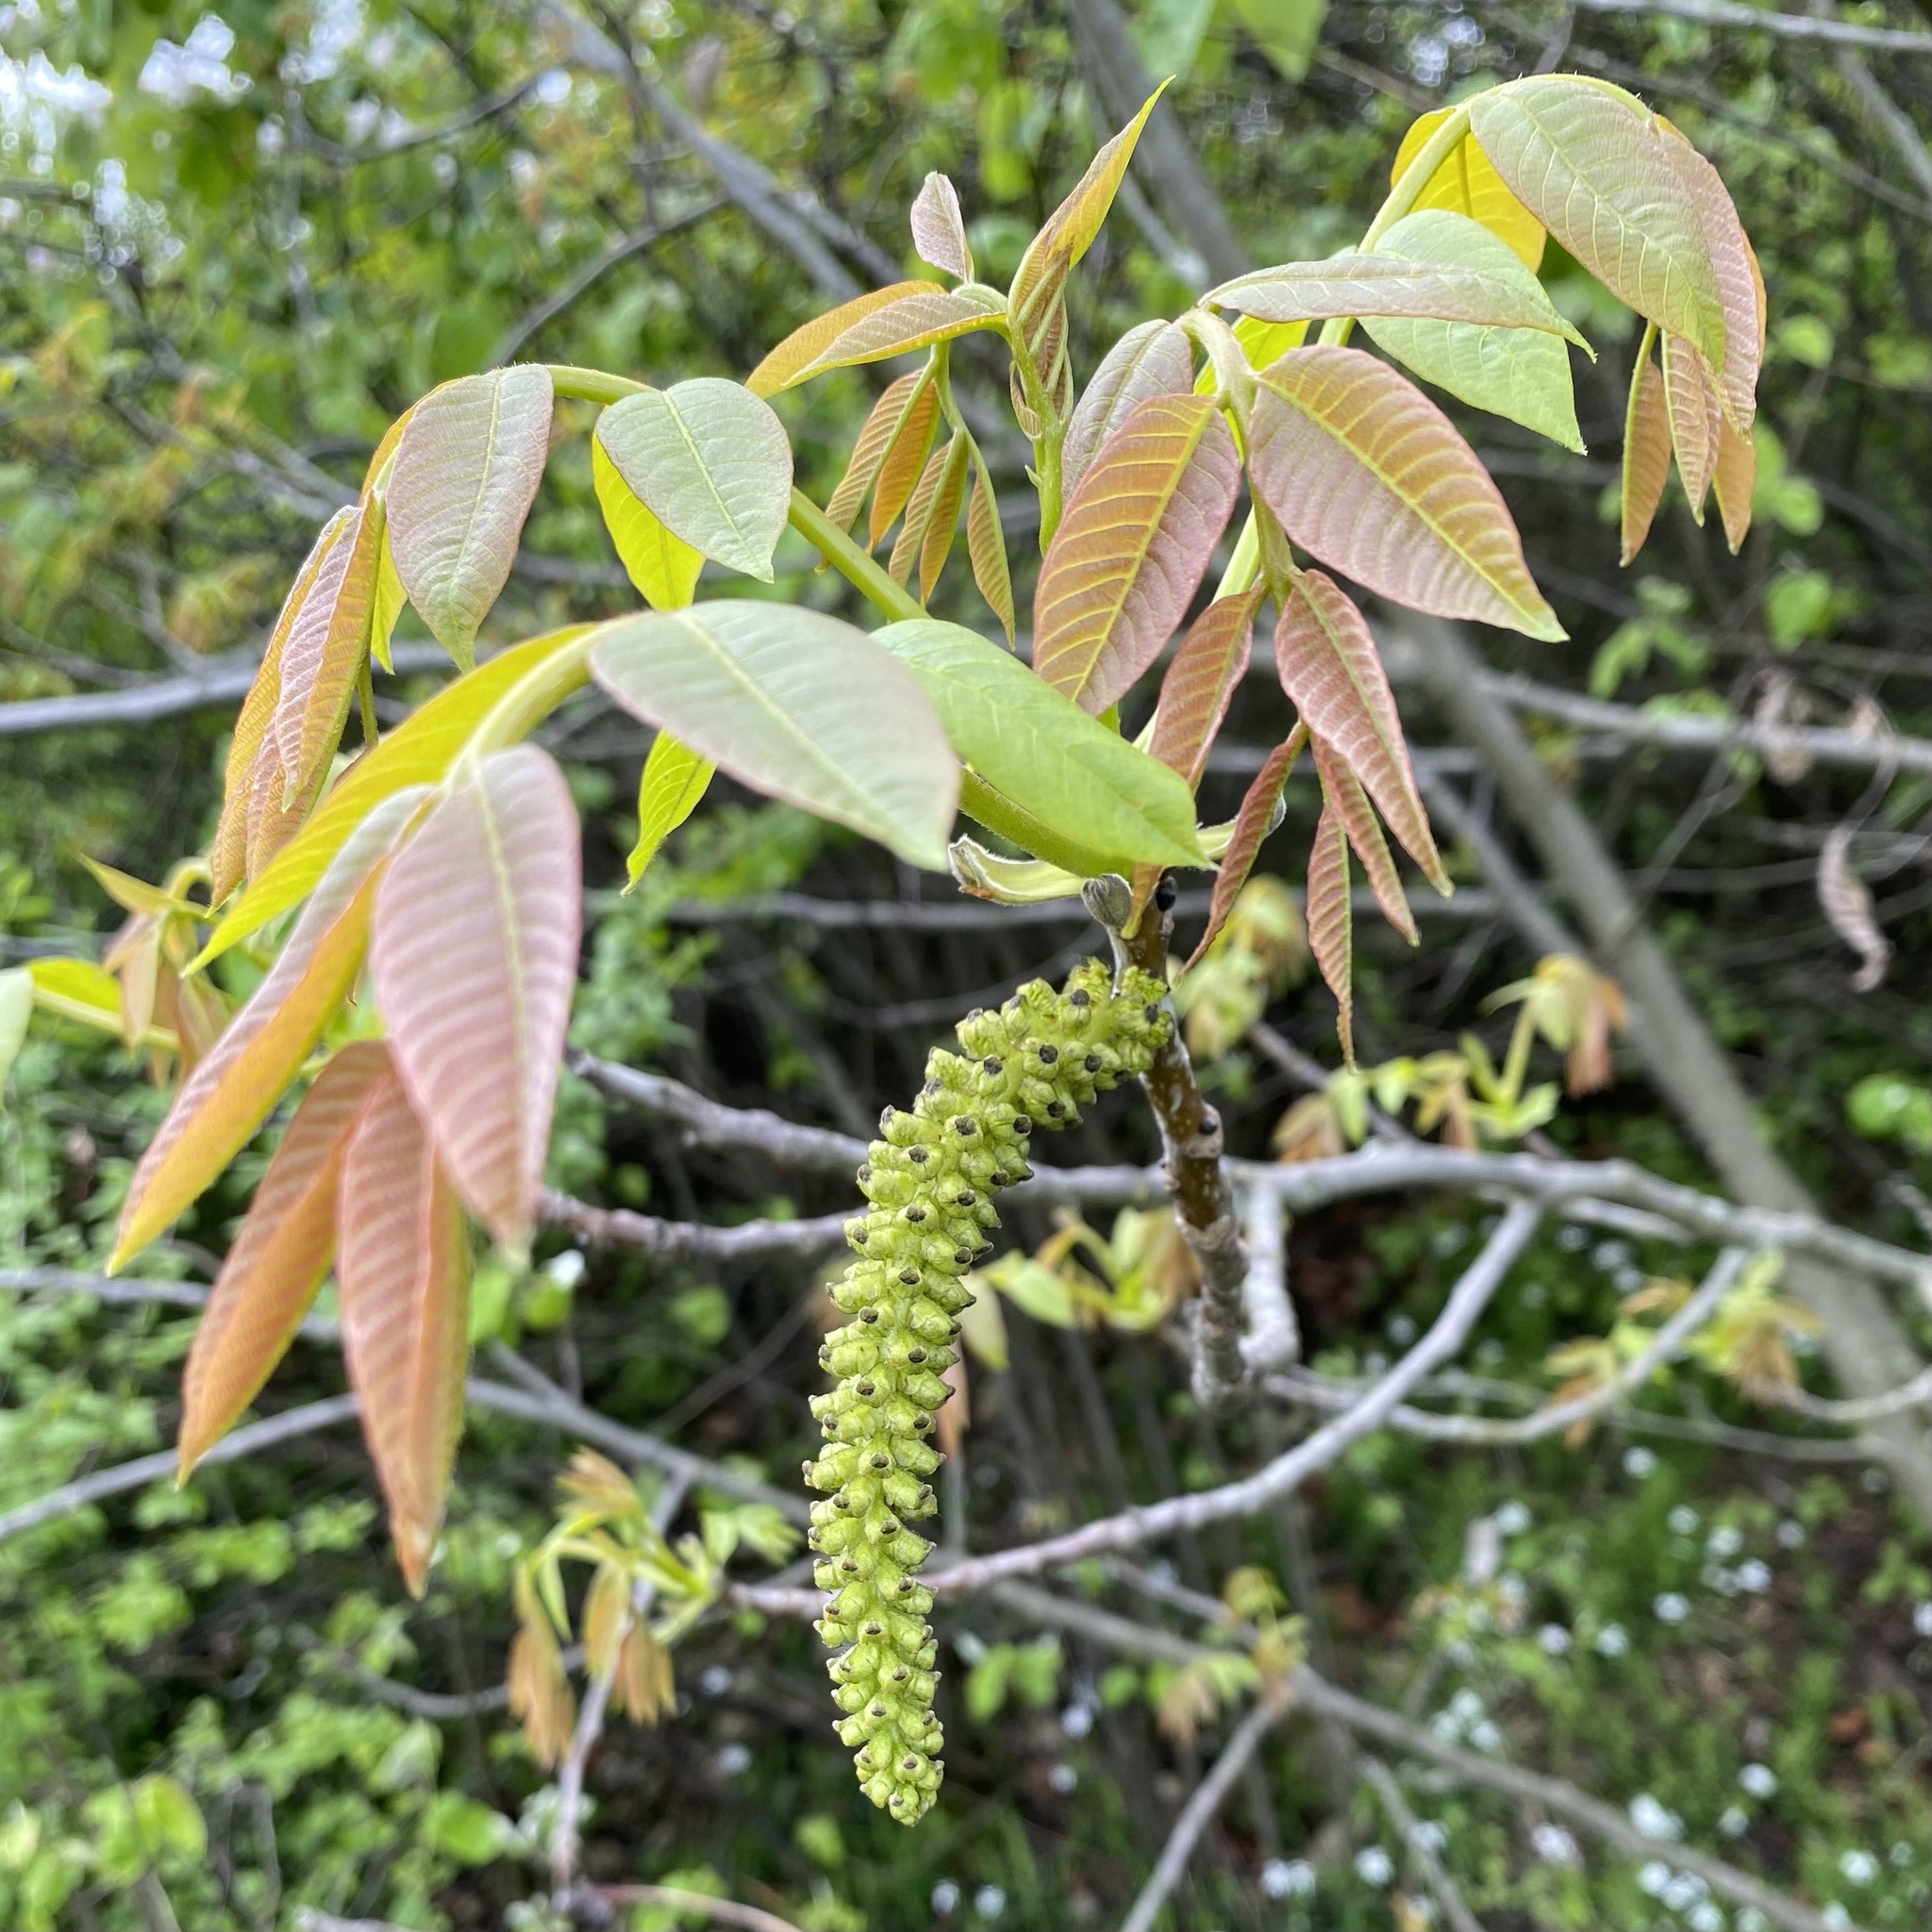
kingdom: Plantae
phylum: Tracheophyta
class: Magnoliopsida
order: Fagales
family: Juglandaceae
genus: Juglans
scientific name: Juglans regia
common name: Walnut
